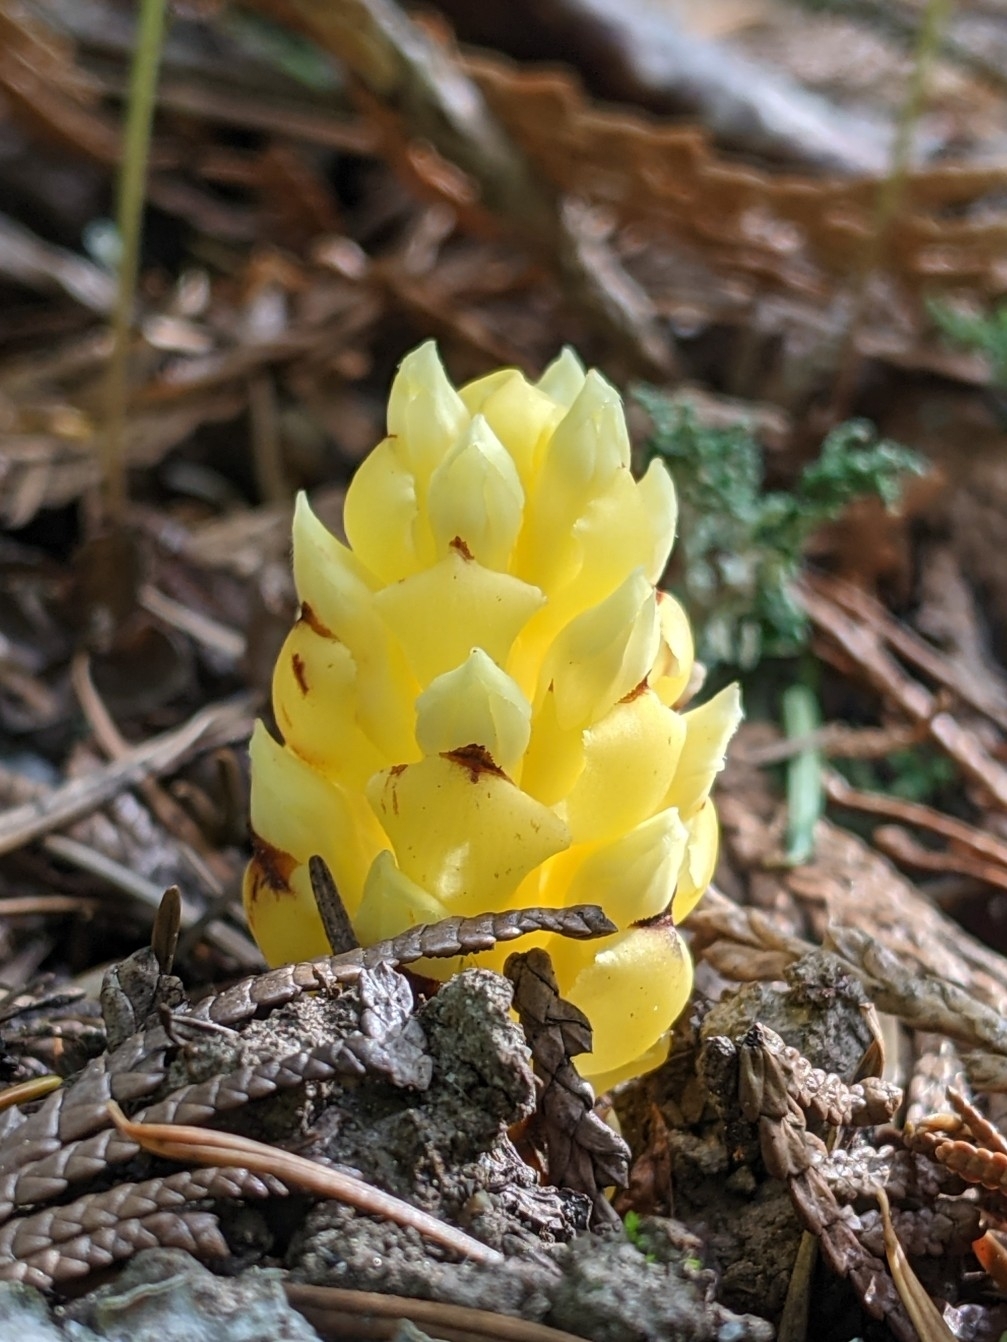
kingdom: Plantae
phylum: Tracheophyta
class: Magnoliopsida
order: Lamiales
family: Orobanchaceae
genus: Kopsiopsis
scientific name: Kopsiopsis hookeri
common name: Hooker's groundcone
